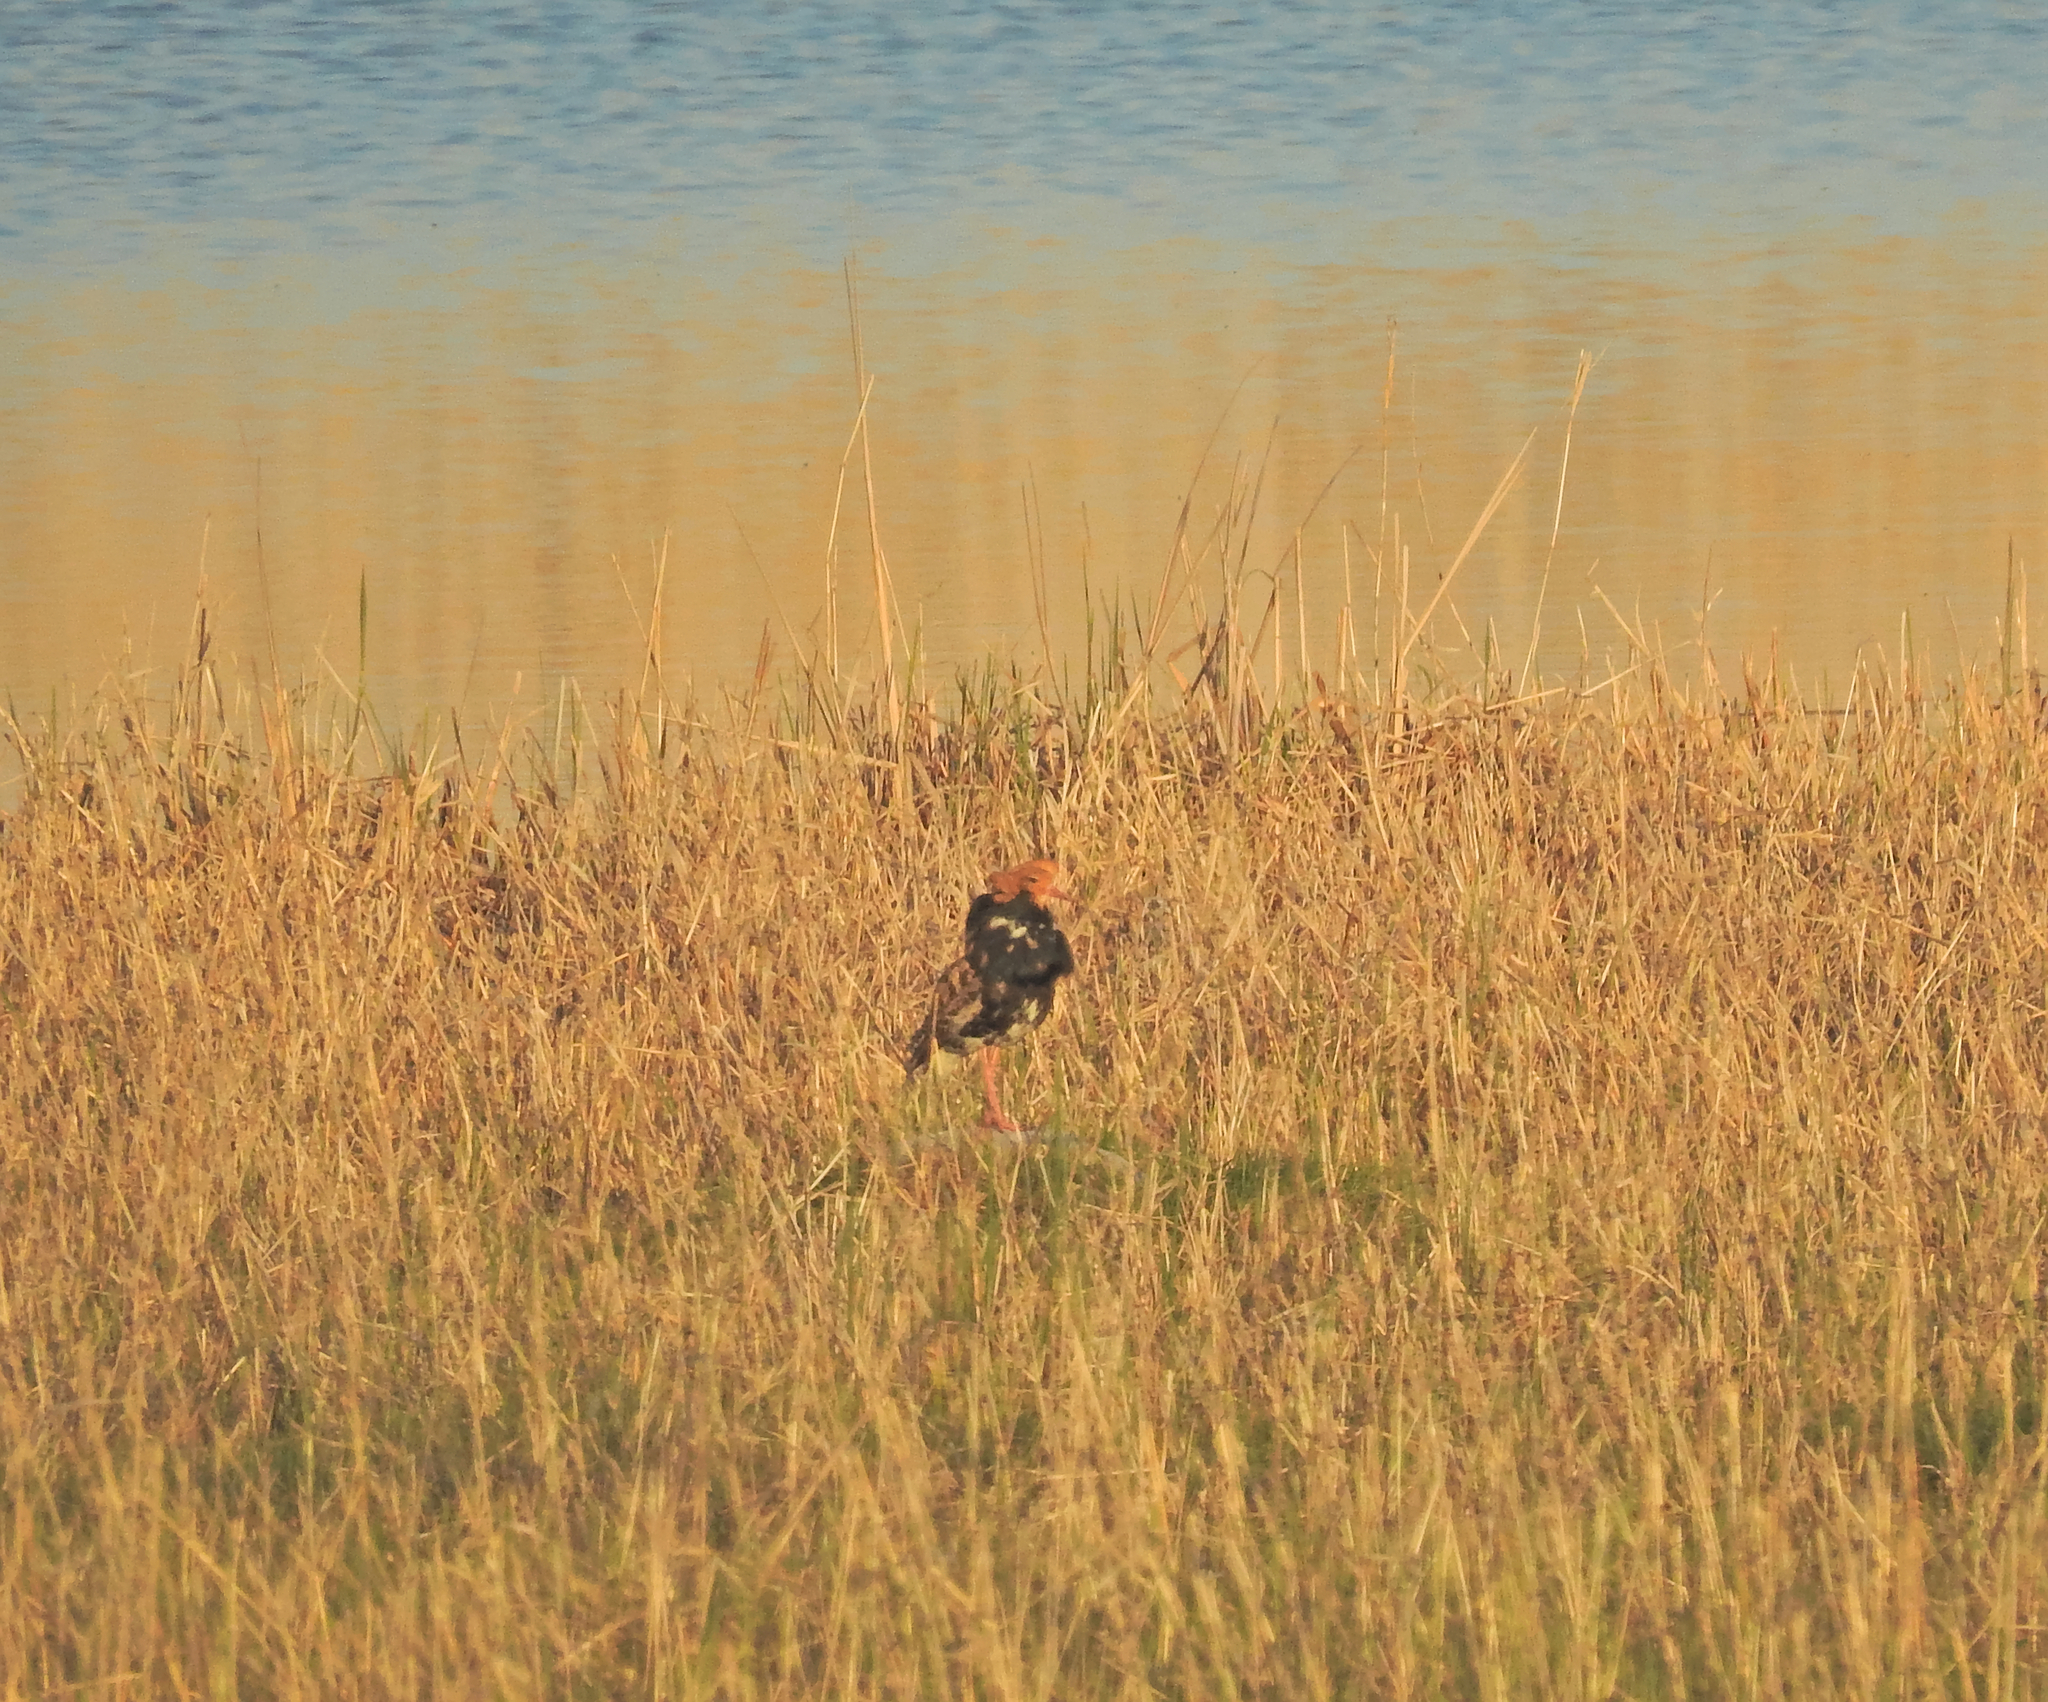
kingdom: Animalia
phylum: Chordata
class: Aves
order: Charadriiformes
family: Scolopacidae
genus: Calidris
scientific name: Calidris pugnax
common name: Ruff
